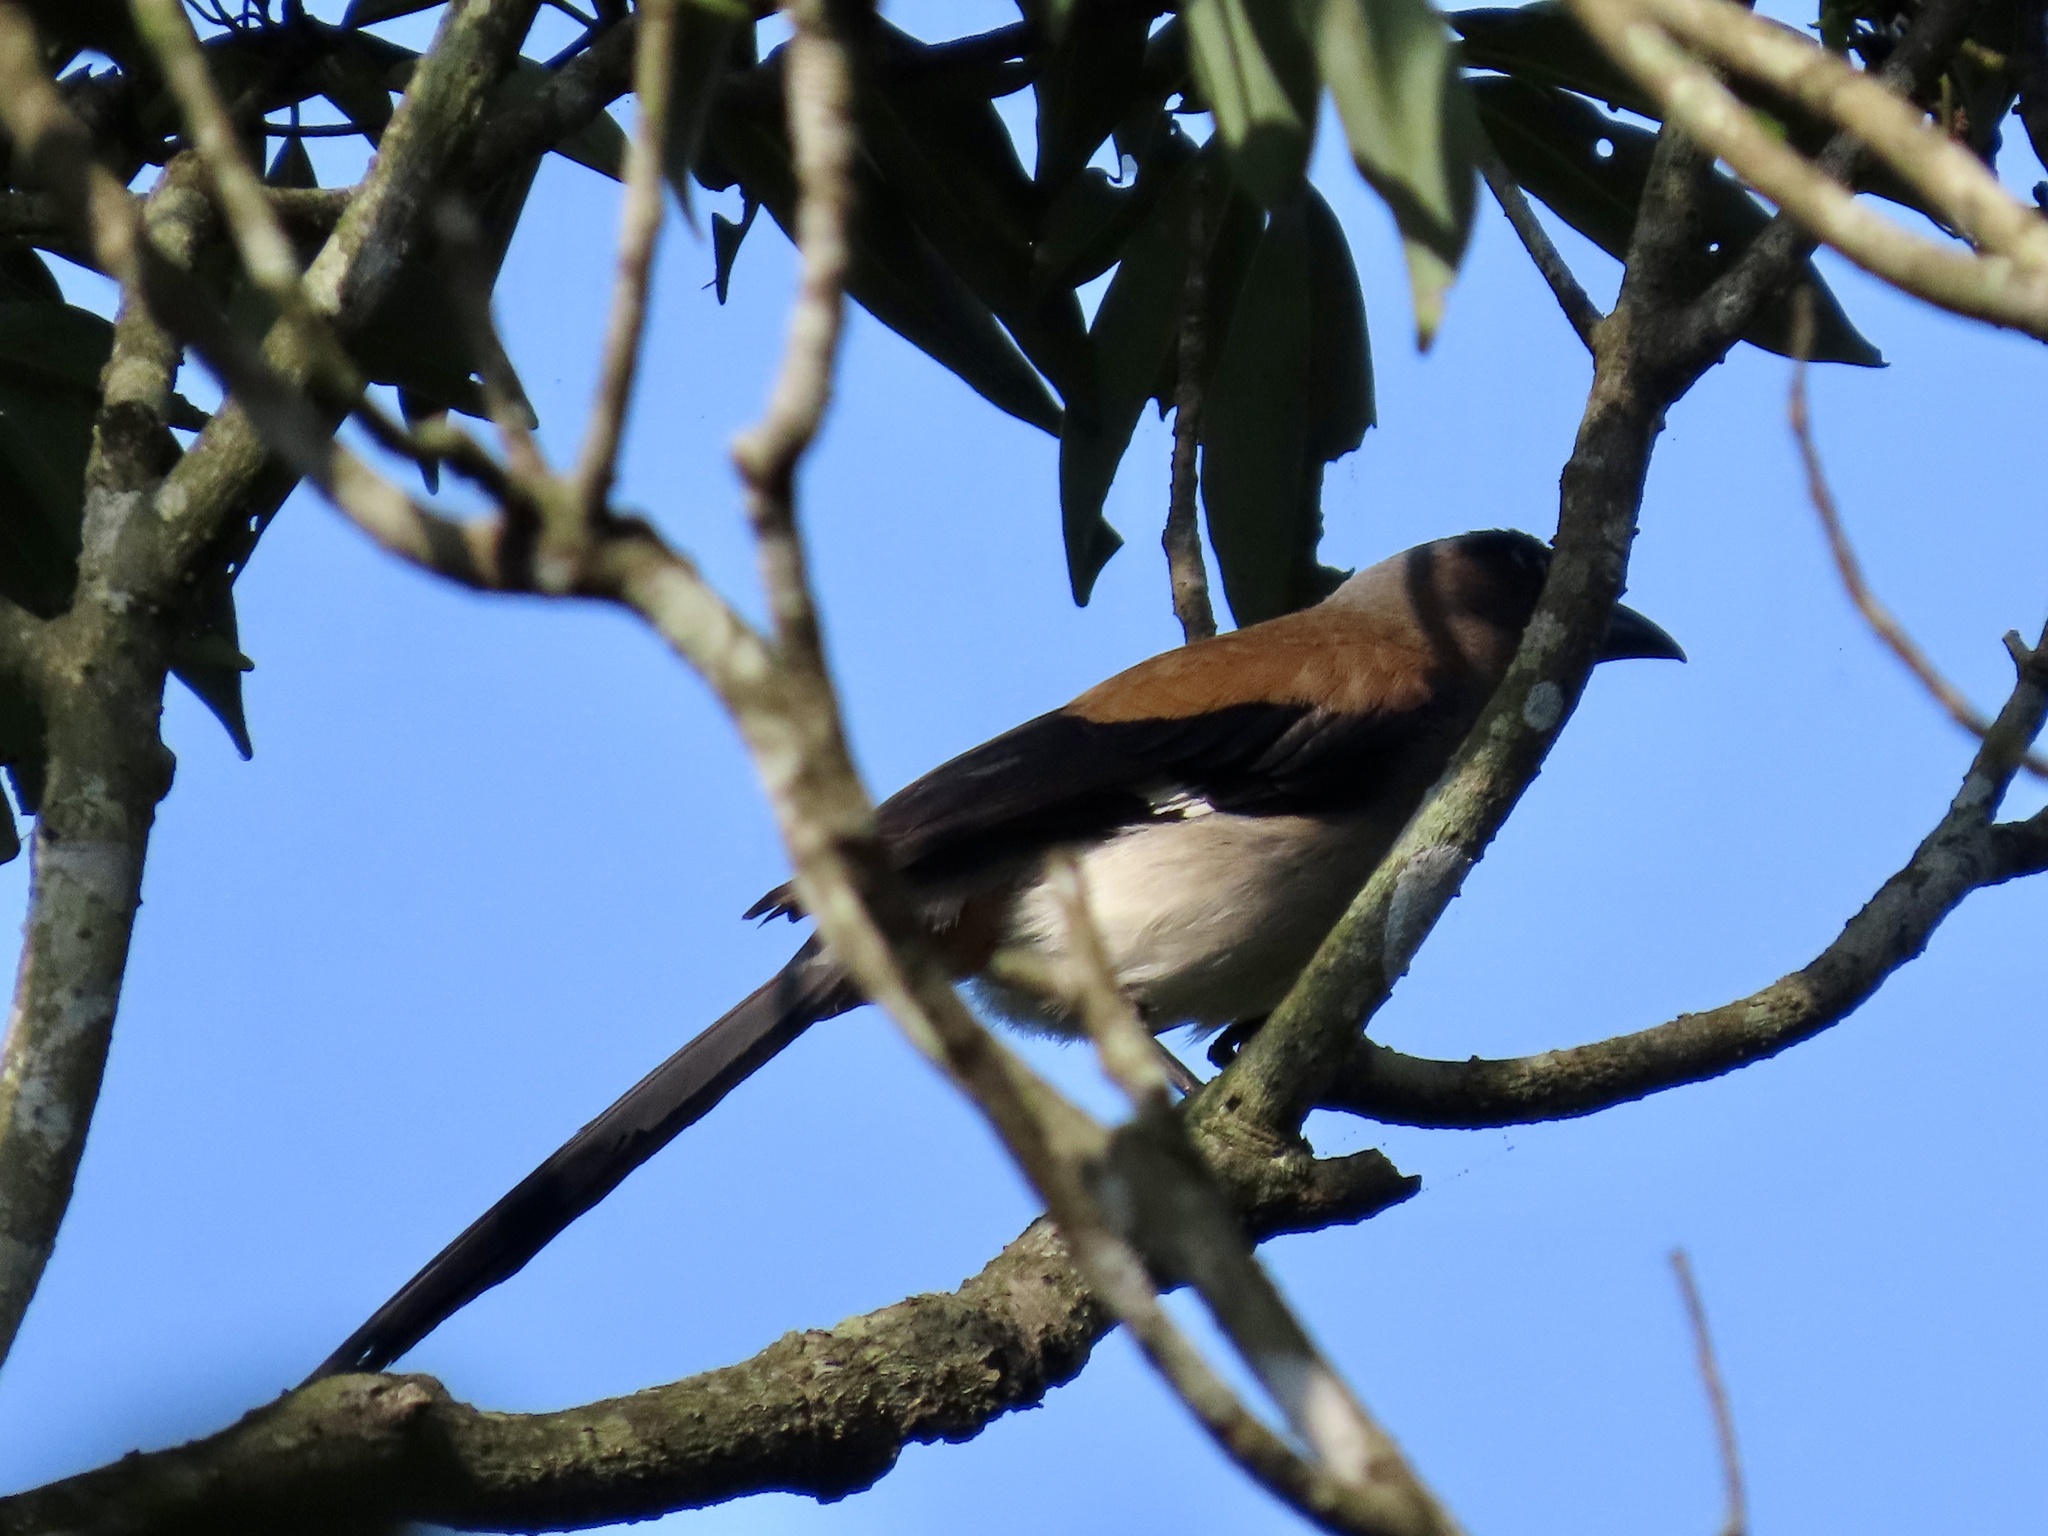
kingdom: Animalia
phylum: Chordata
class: Aves
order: Passeriformes
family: Corvidae
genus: Dendrocitta
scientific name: Dendrocitta formosae
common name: Grey treepie
